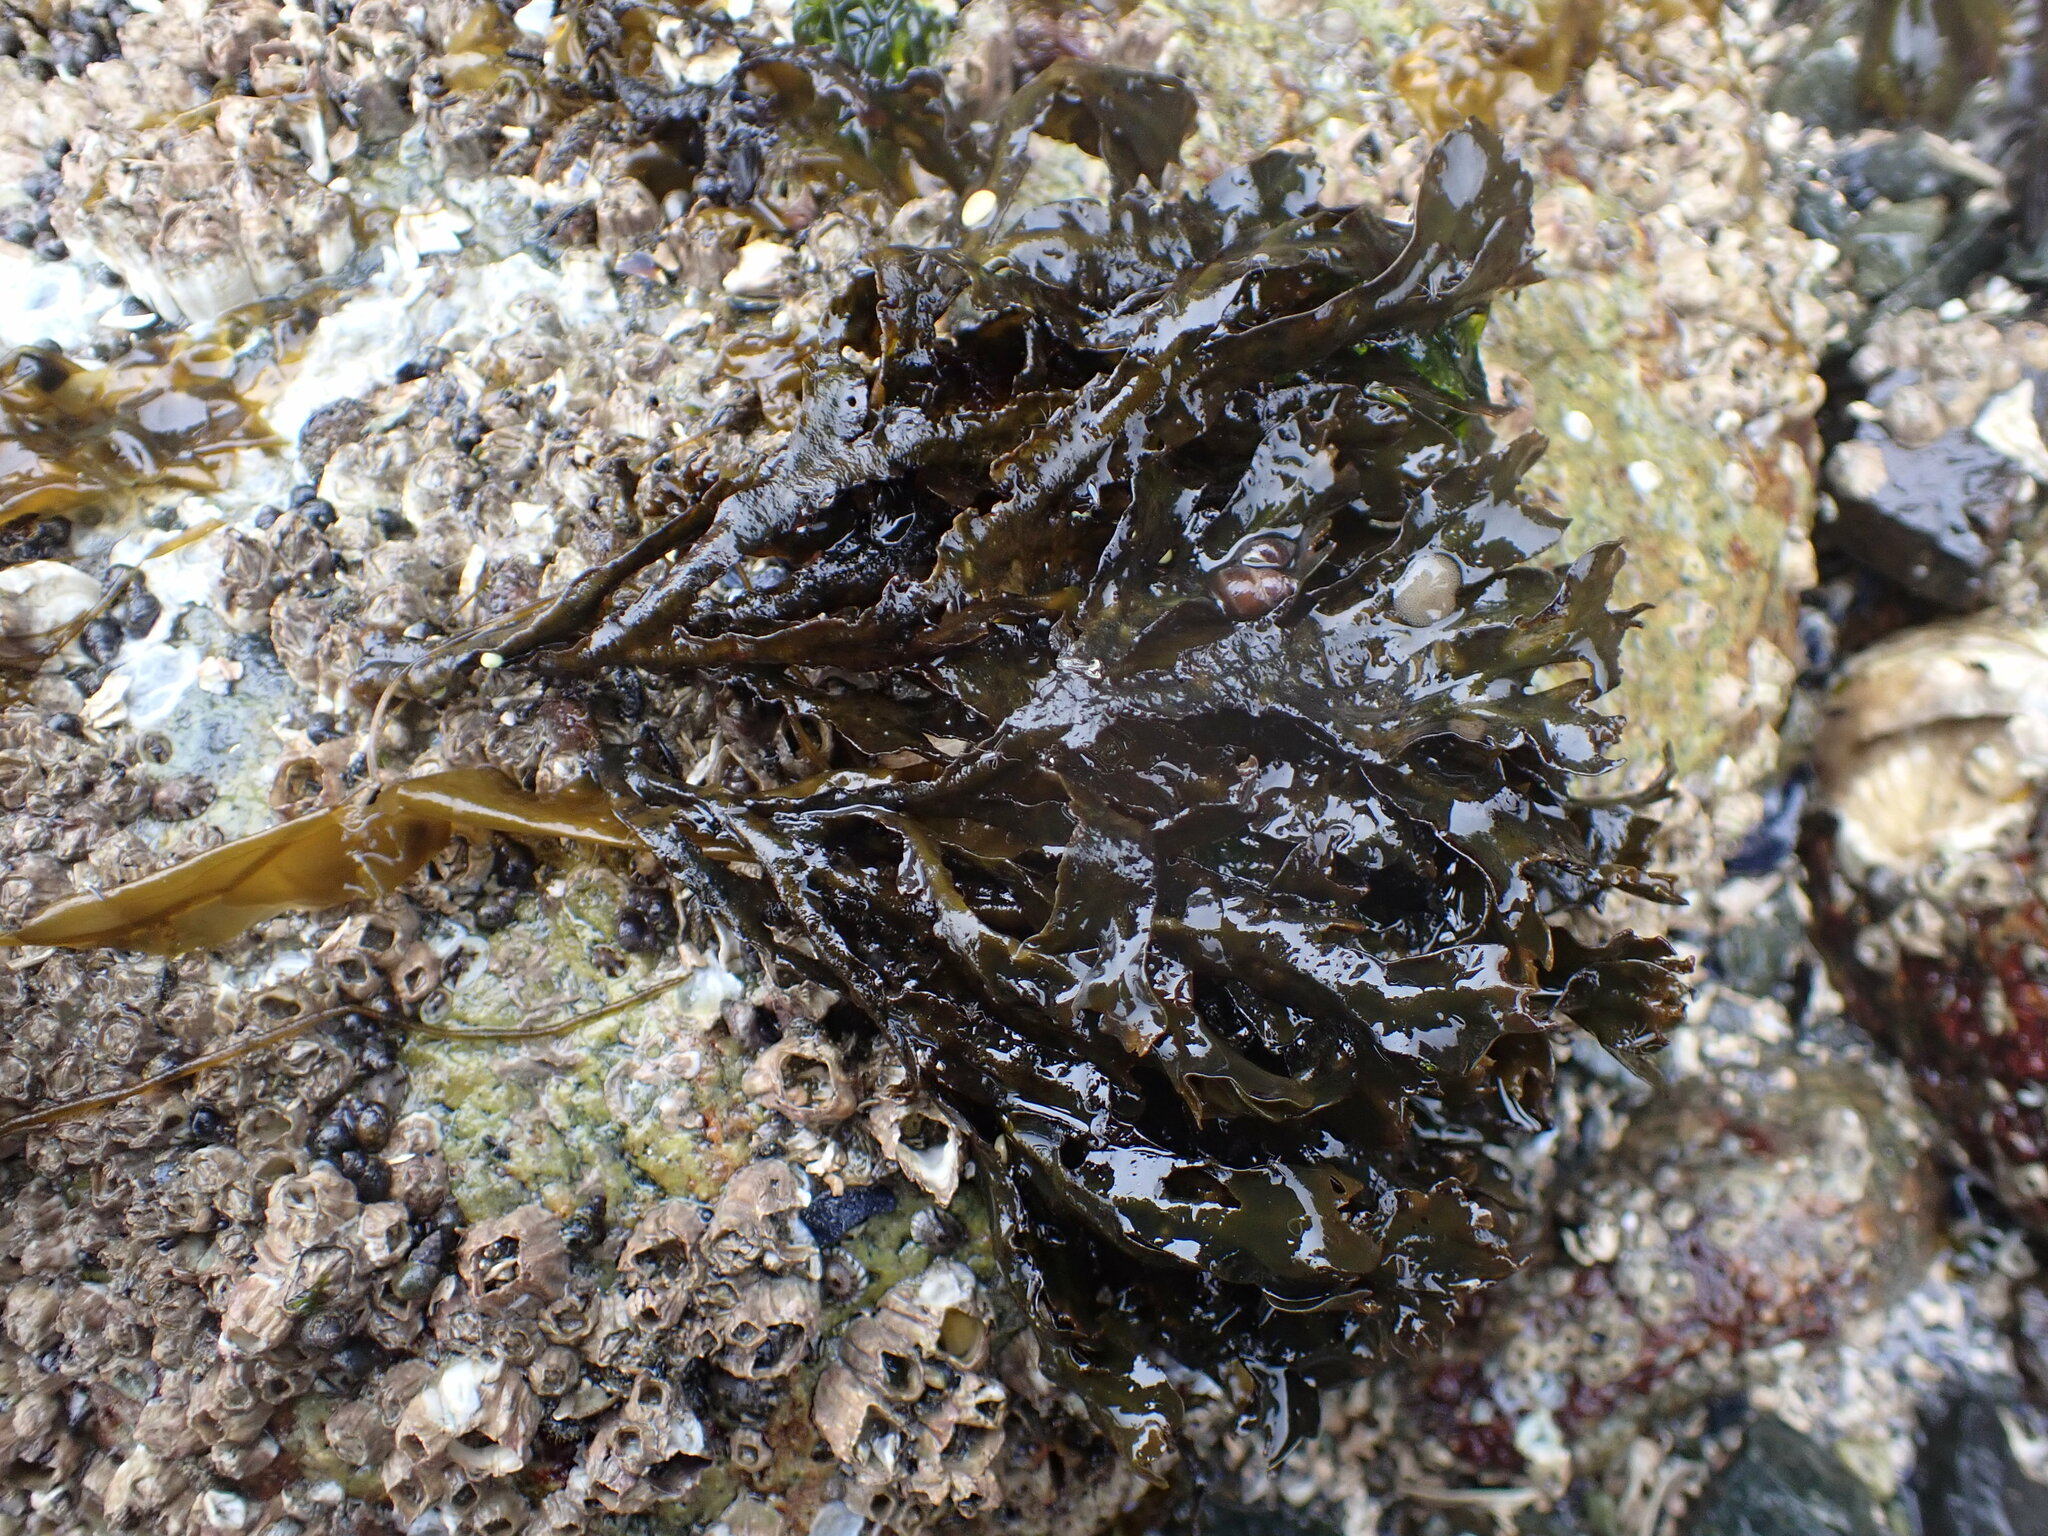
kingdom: Chromista
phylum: Ochrophyta
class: Phaeophyceae
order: Fucales
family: Fucaceae
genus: Fucus
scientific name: Fucus distichus
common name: Rockweed
